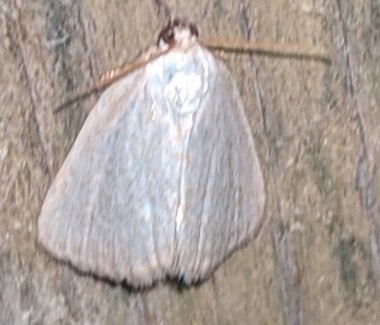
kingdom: Animalia
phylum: Arthropoda
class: Insecta
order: Lepidoptera
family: Noctuidae
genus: Protodeltote
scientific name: Protodeltote albidula
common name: Pale glyph
